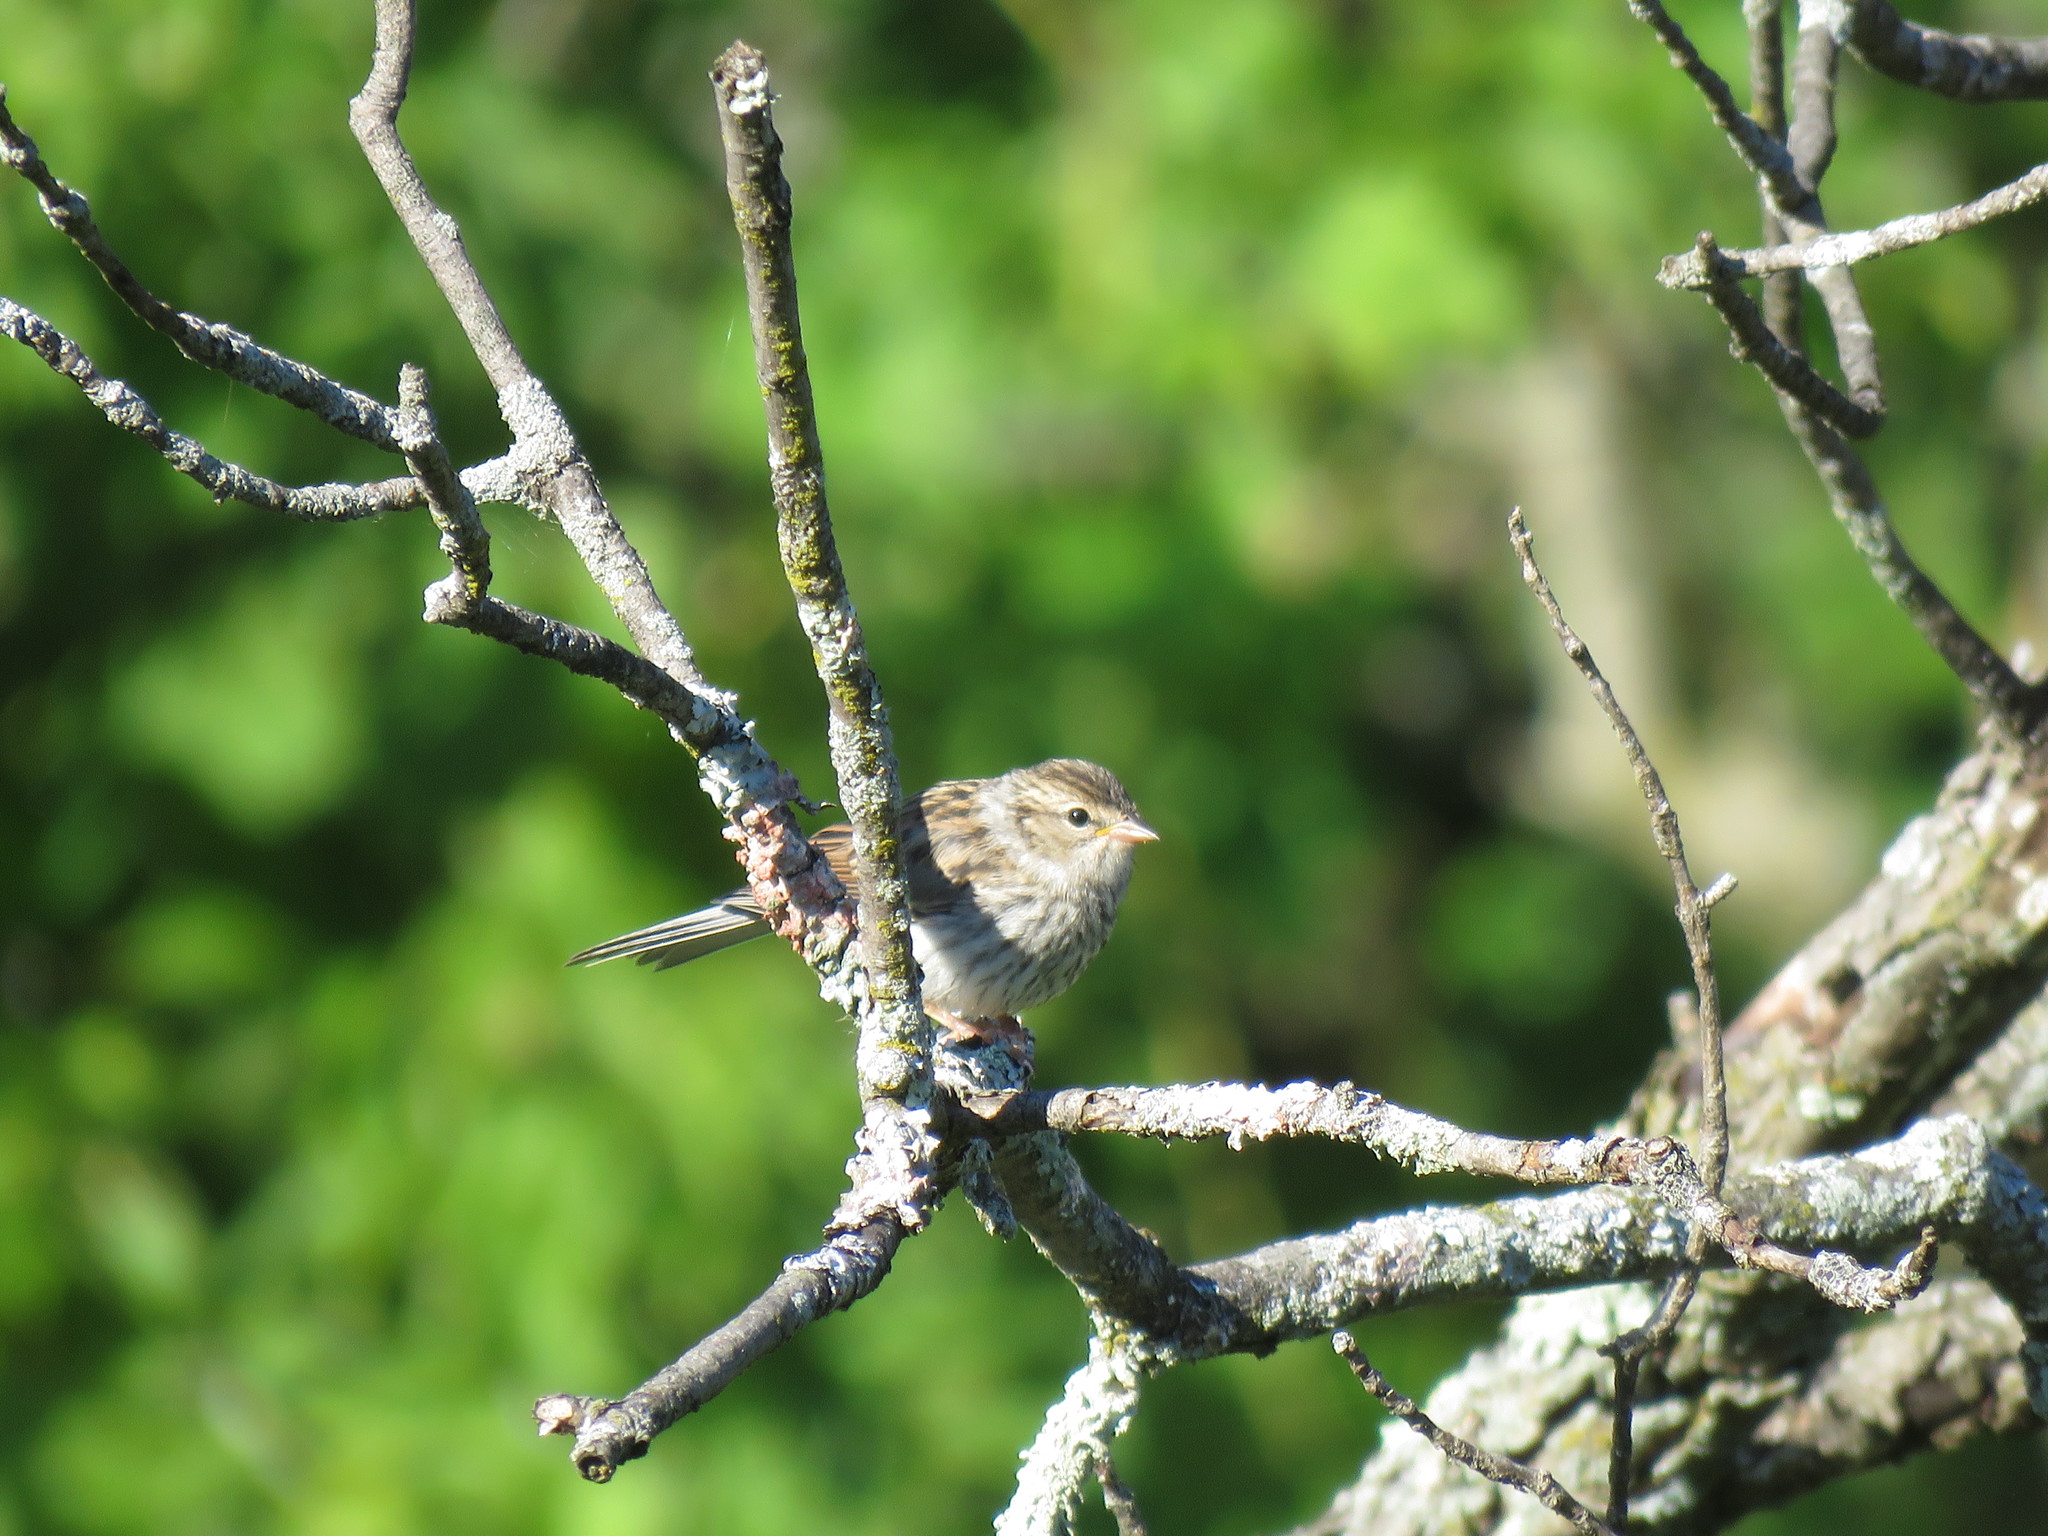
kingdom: Animalia
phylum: Chordata
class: Aves
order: Passeriformes
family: Passerellidae
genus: Spizella
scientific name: Spizella passerina
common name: Chipping sparrow
